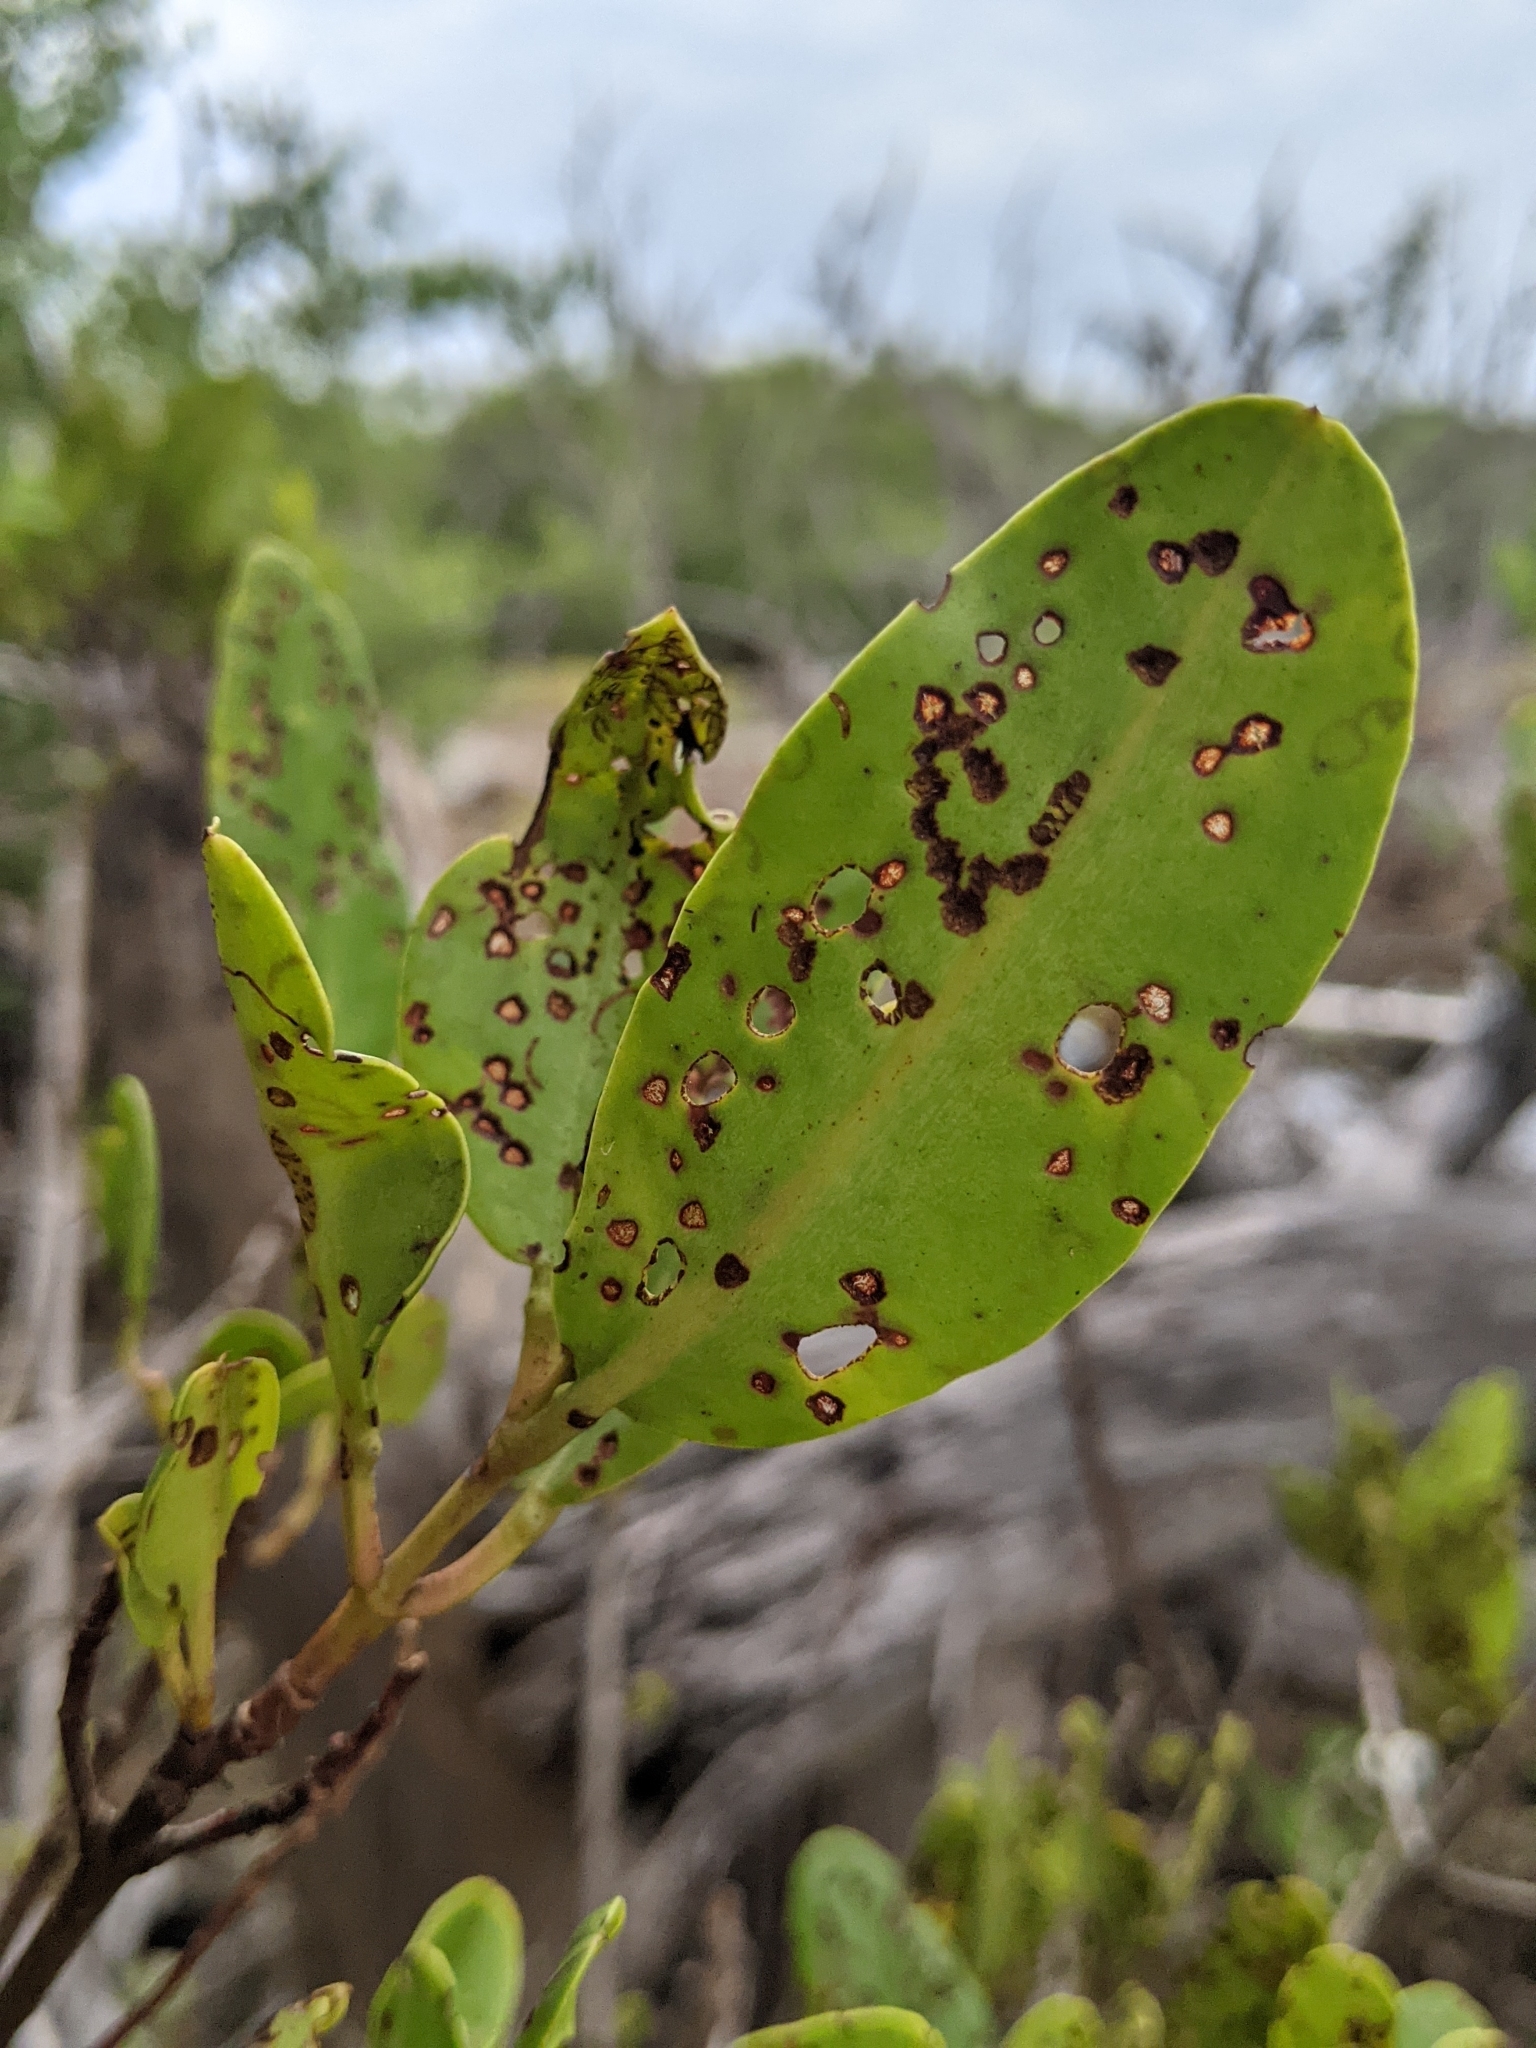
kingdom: Plantae
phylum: Tracheophyta
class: Magnoliopsida
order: Myrtales
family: Combretaceae
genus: Laguncularia
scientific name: Laguncularia racemosa
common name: White mangrove
